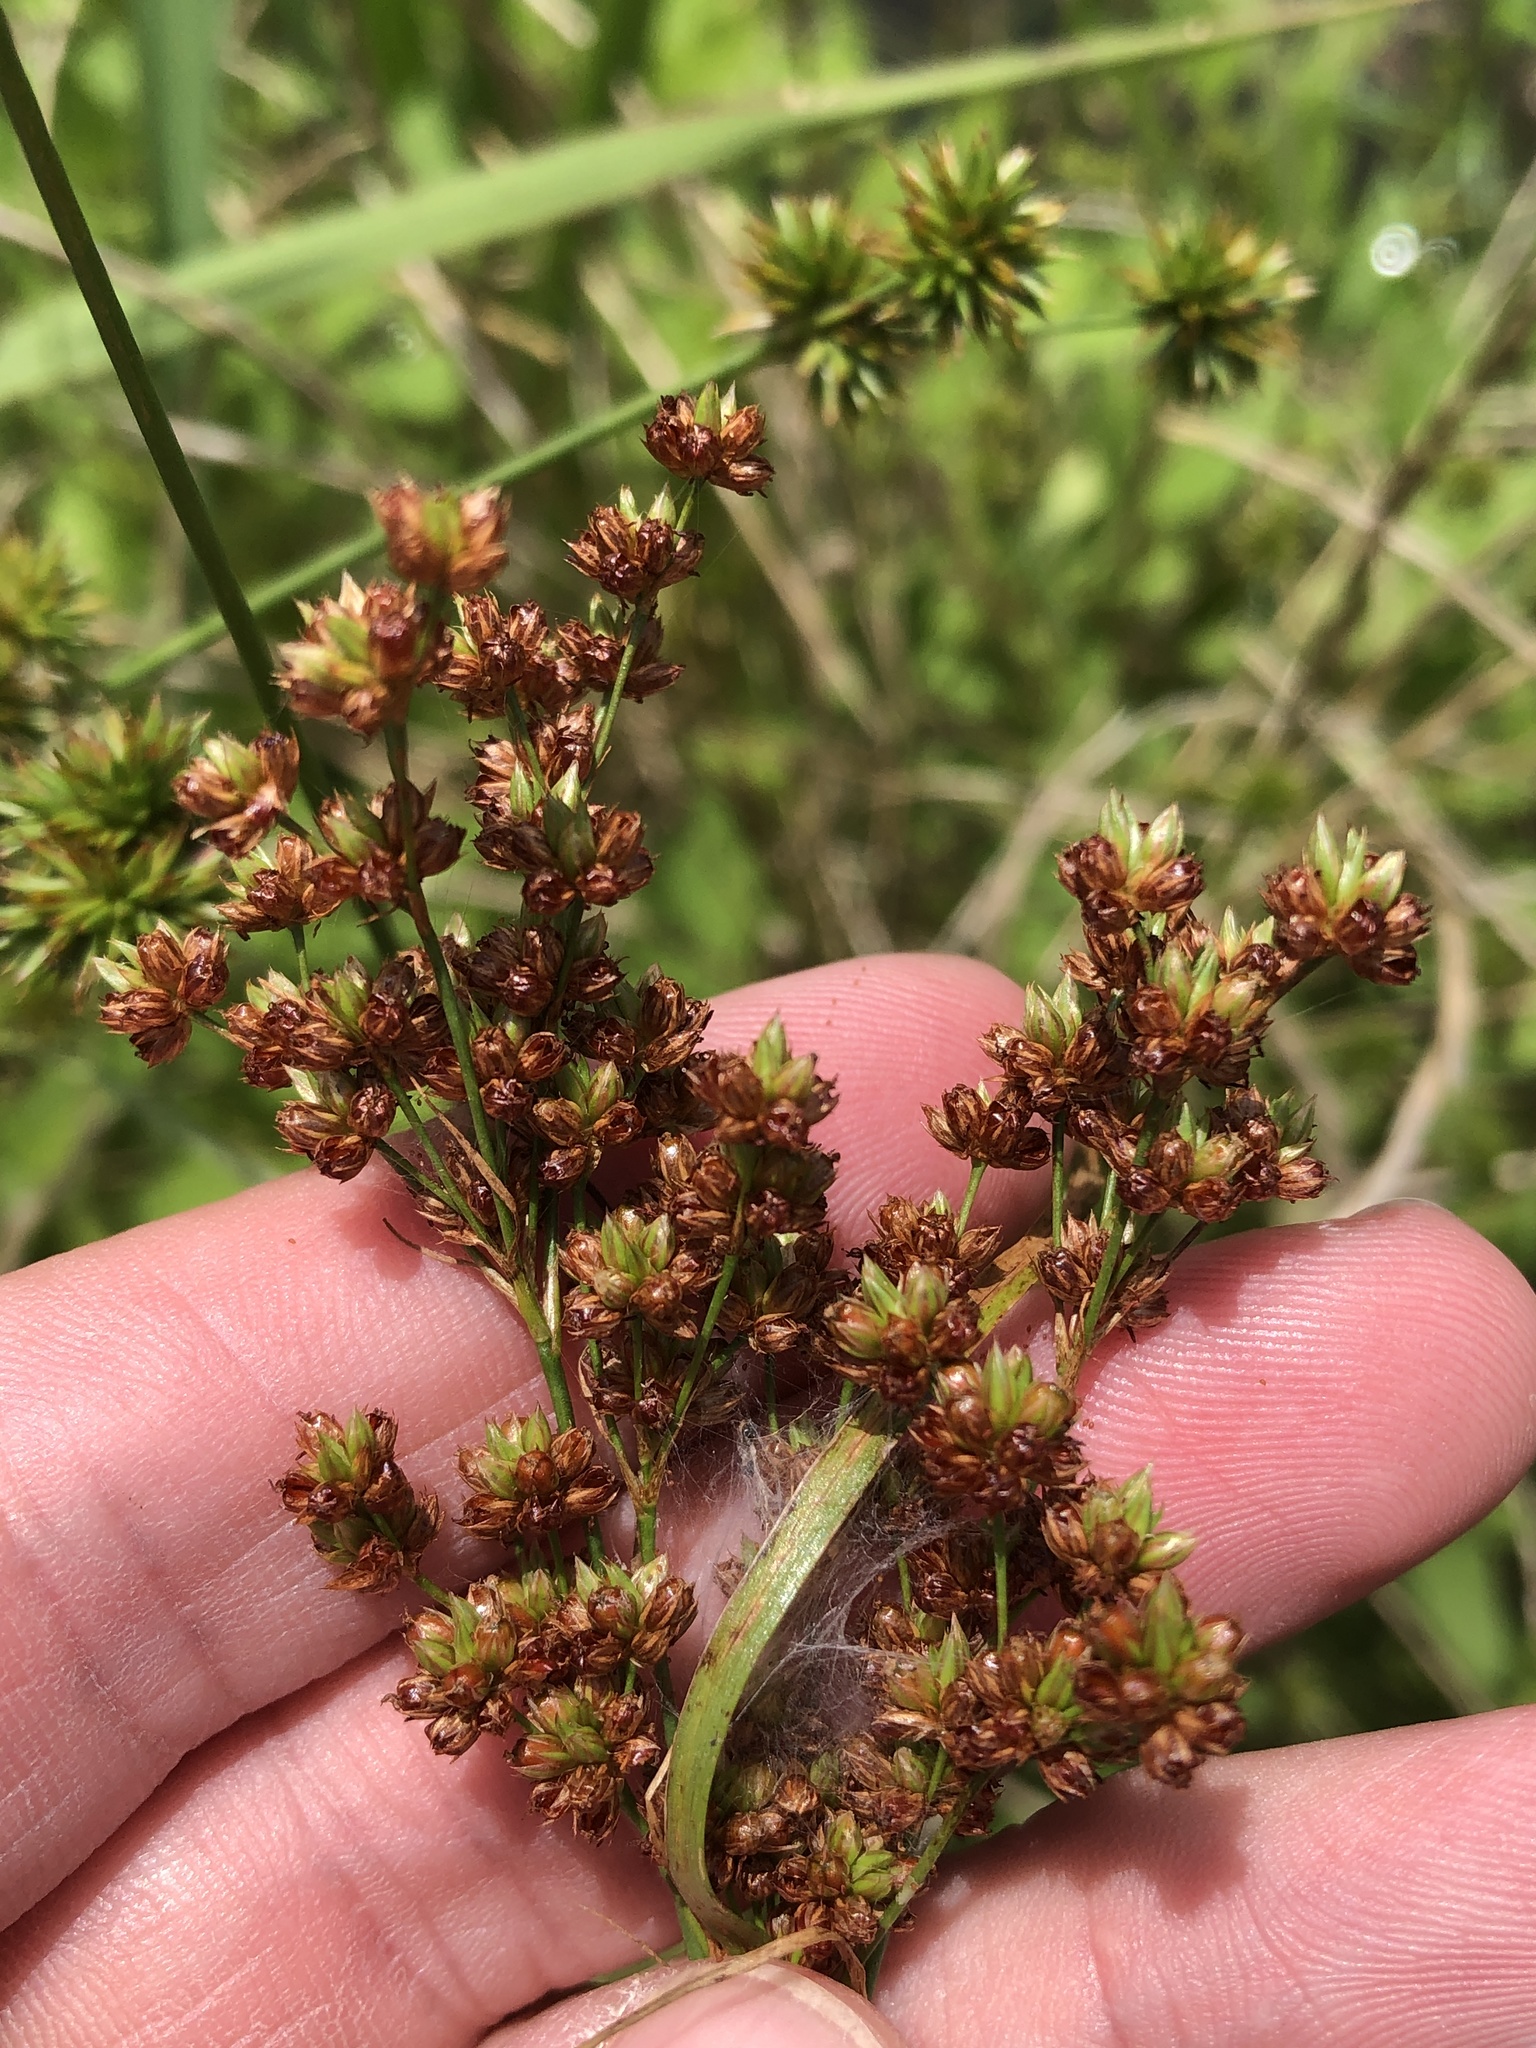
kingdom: Plantae
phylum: Tracheophyta
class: Liliopsida
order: Poales
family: Juncaceae
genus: Juncus
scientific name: Juncus marginatus
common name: Grass-leaf rush
